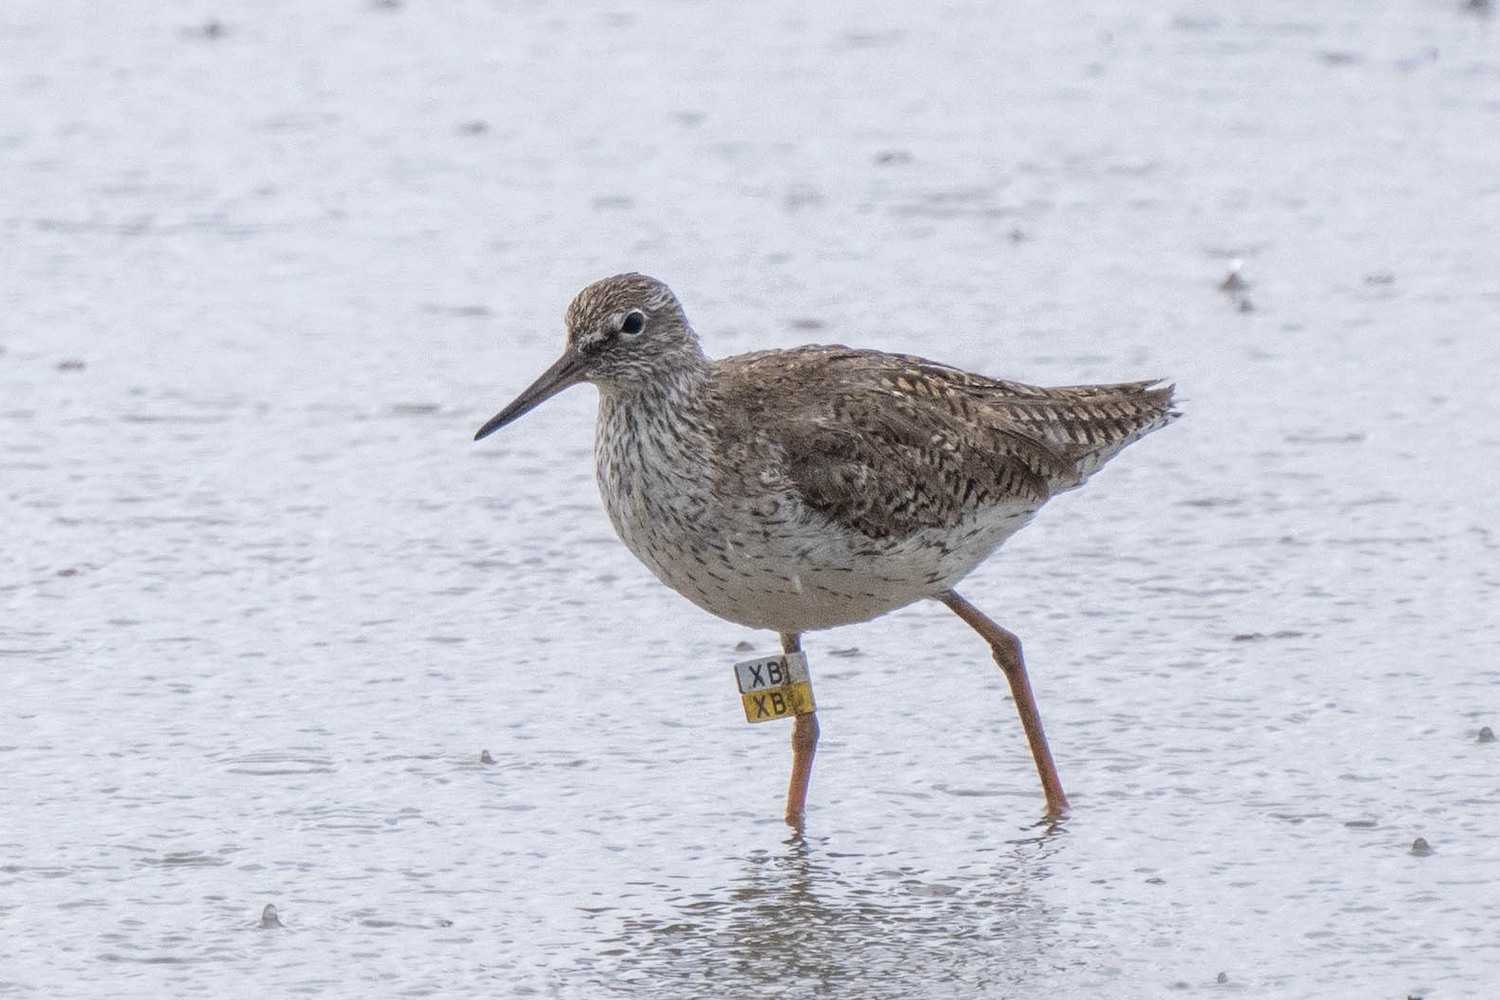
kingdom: Animalia
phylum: Chordata
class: Aves
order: Charadriiformes
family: Scolopacidae
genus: Tringa
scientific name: Tringa totanus
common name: Common redshank
